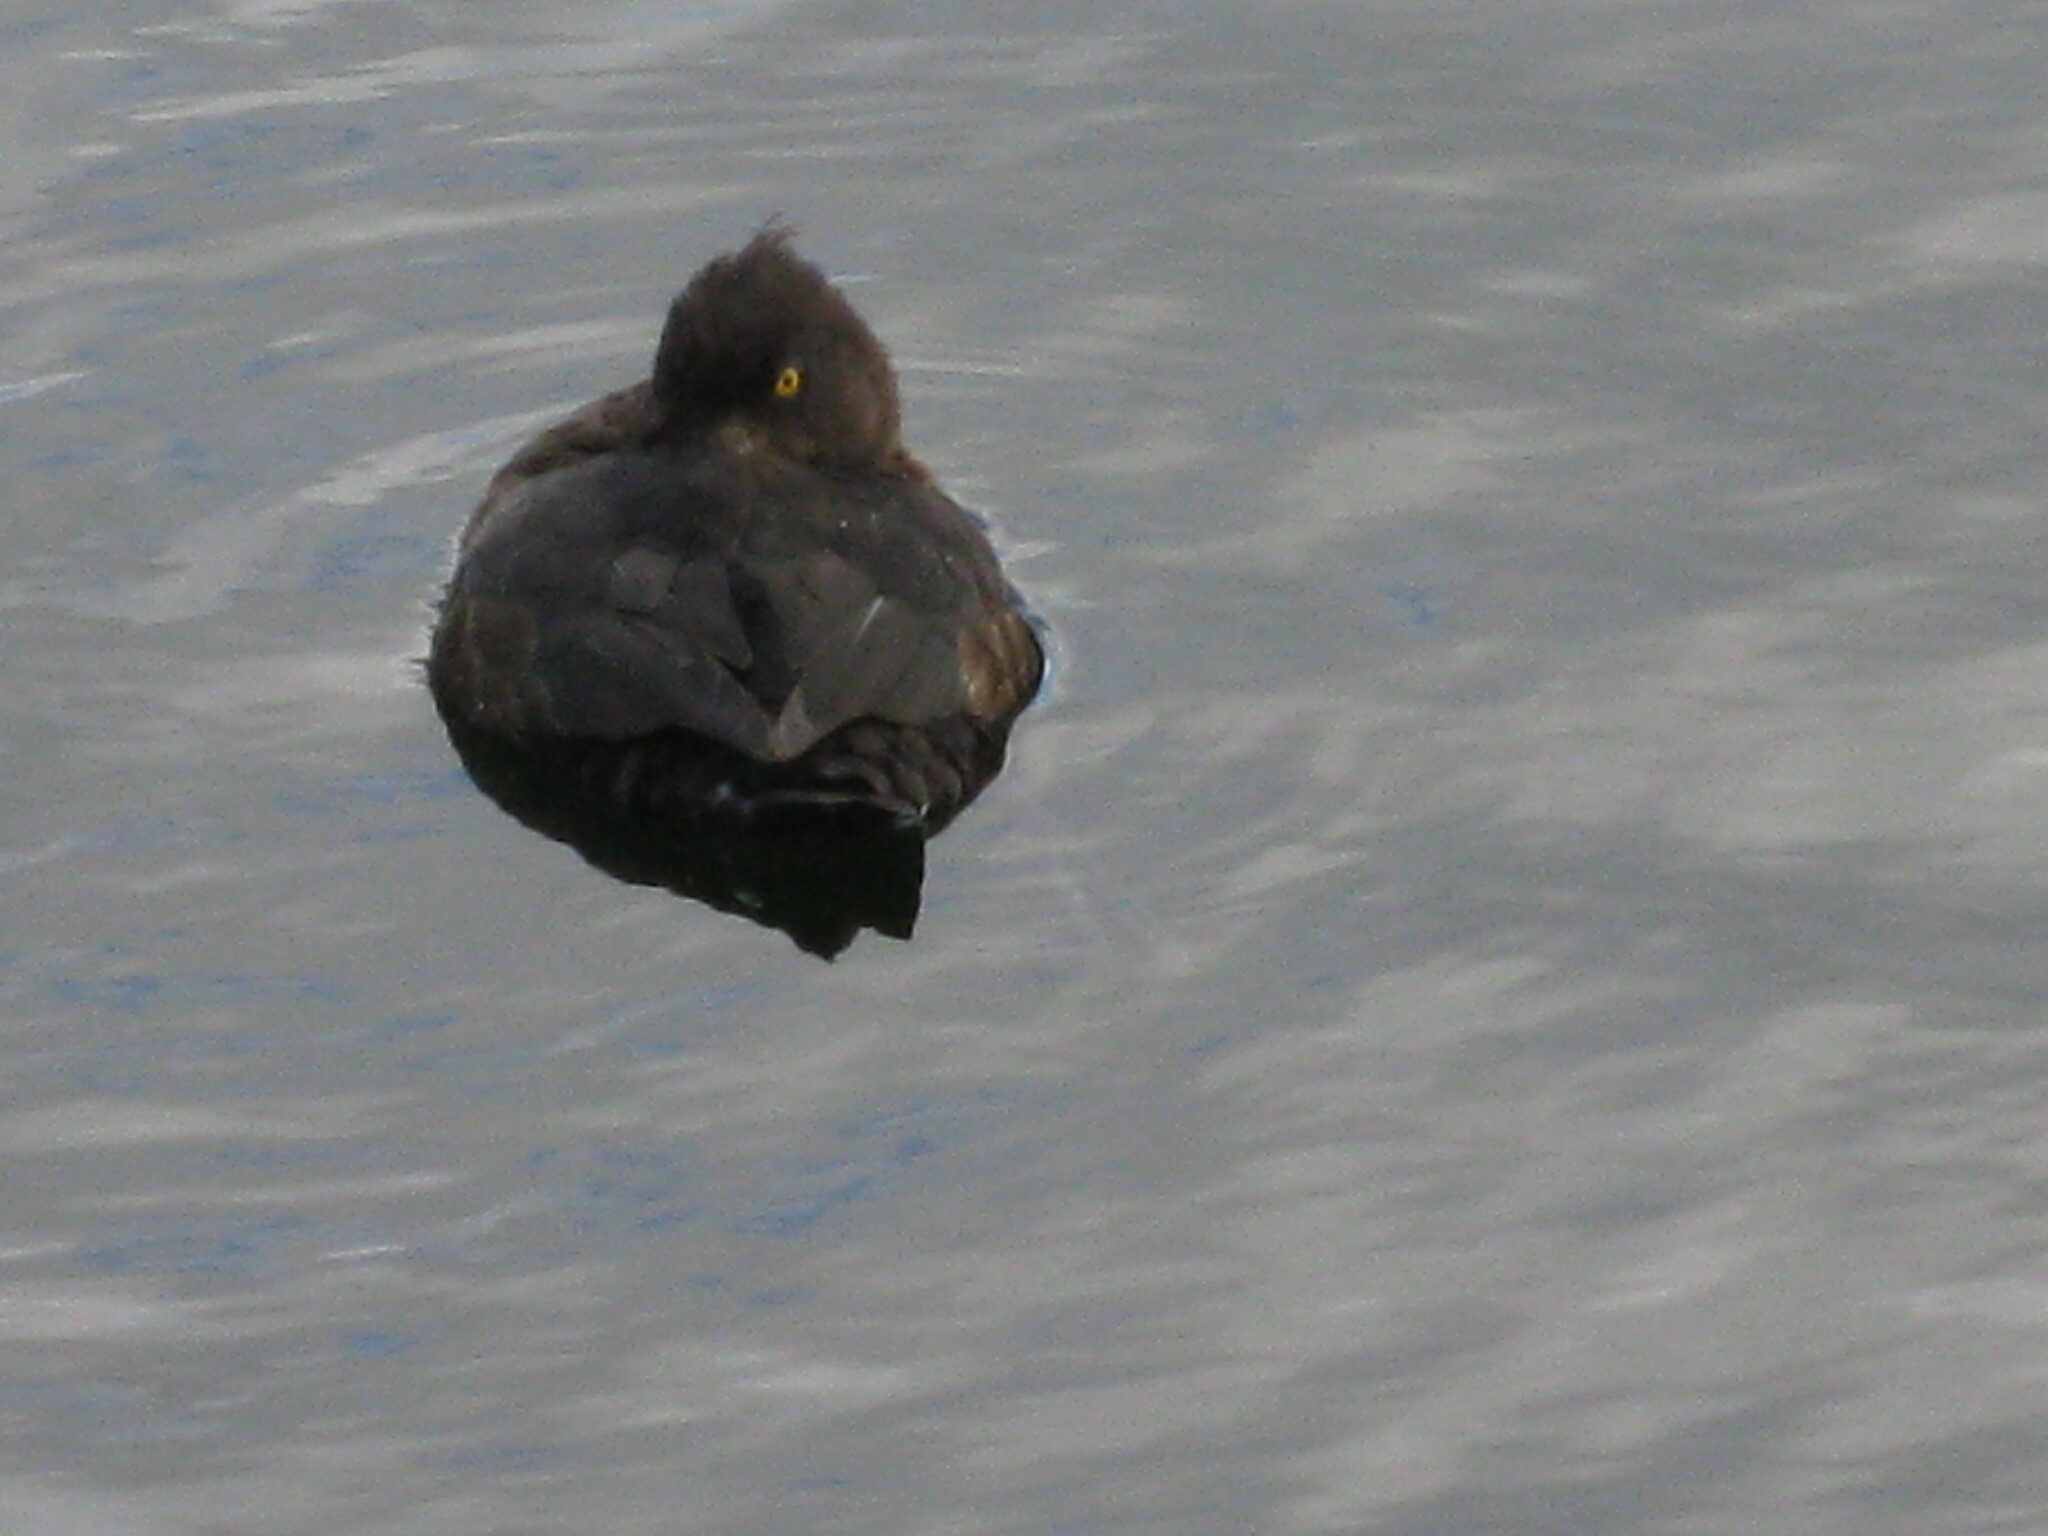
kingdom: Animalia
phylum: Chordata
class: Aves
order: Anseriformes
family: Anatidae
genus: Aythya
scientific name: Aythya fuligula
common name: Tufted duck
